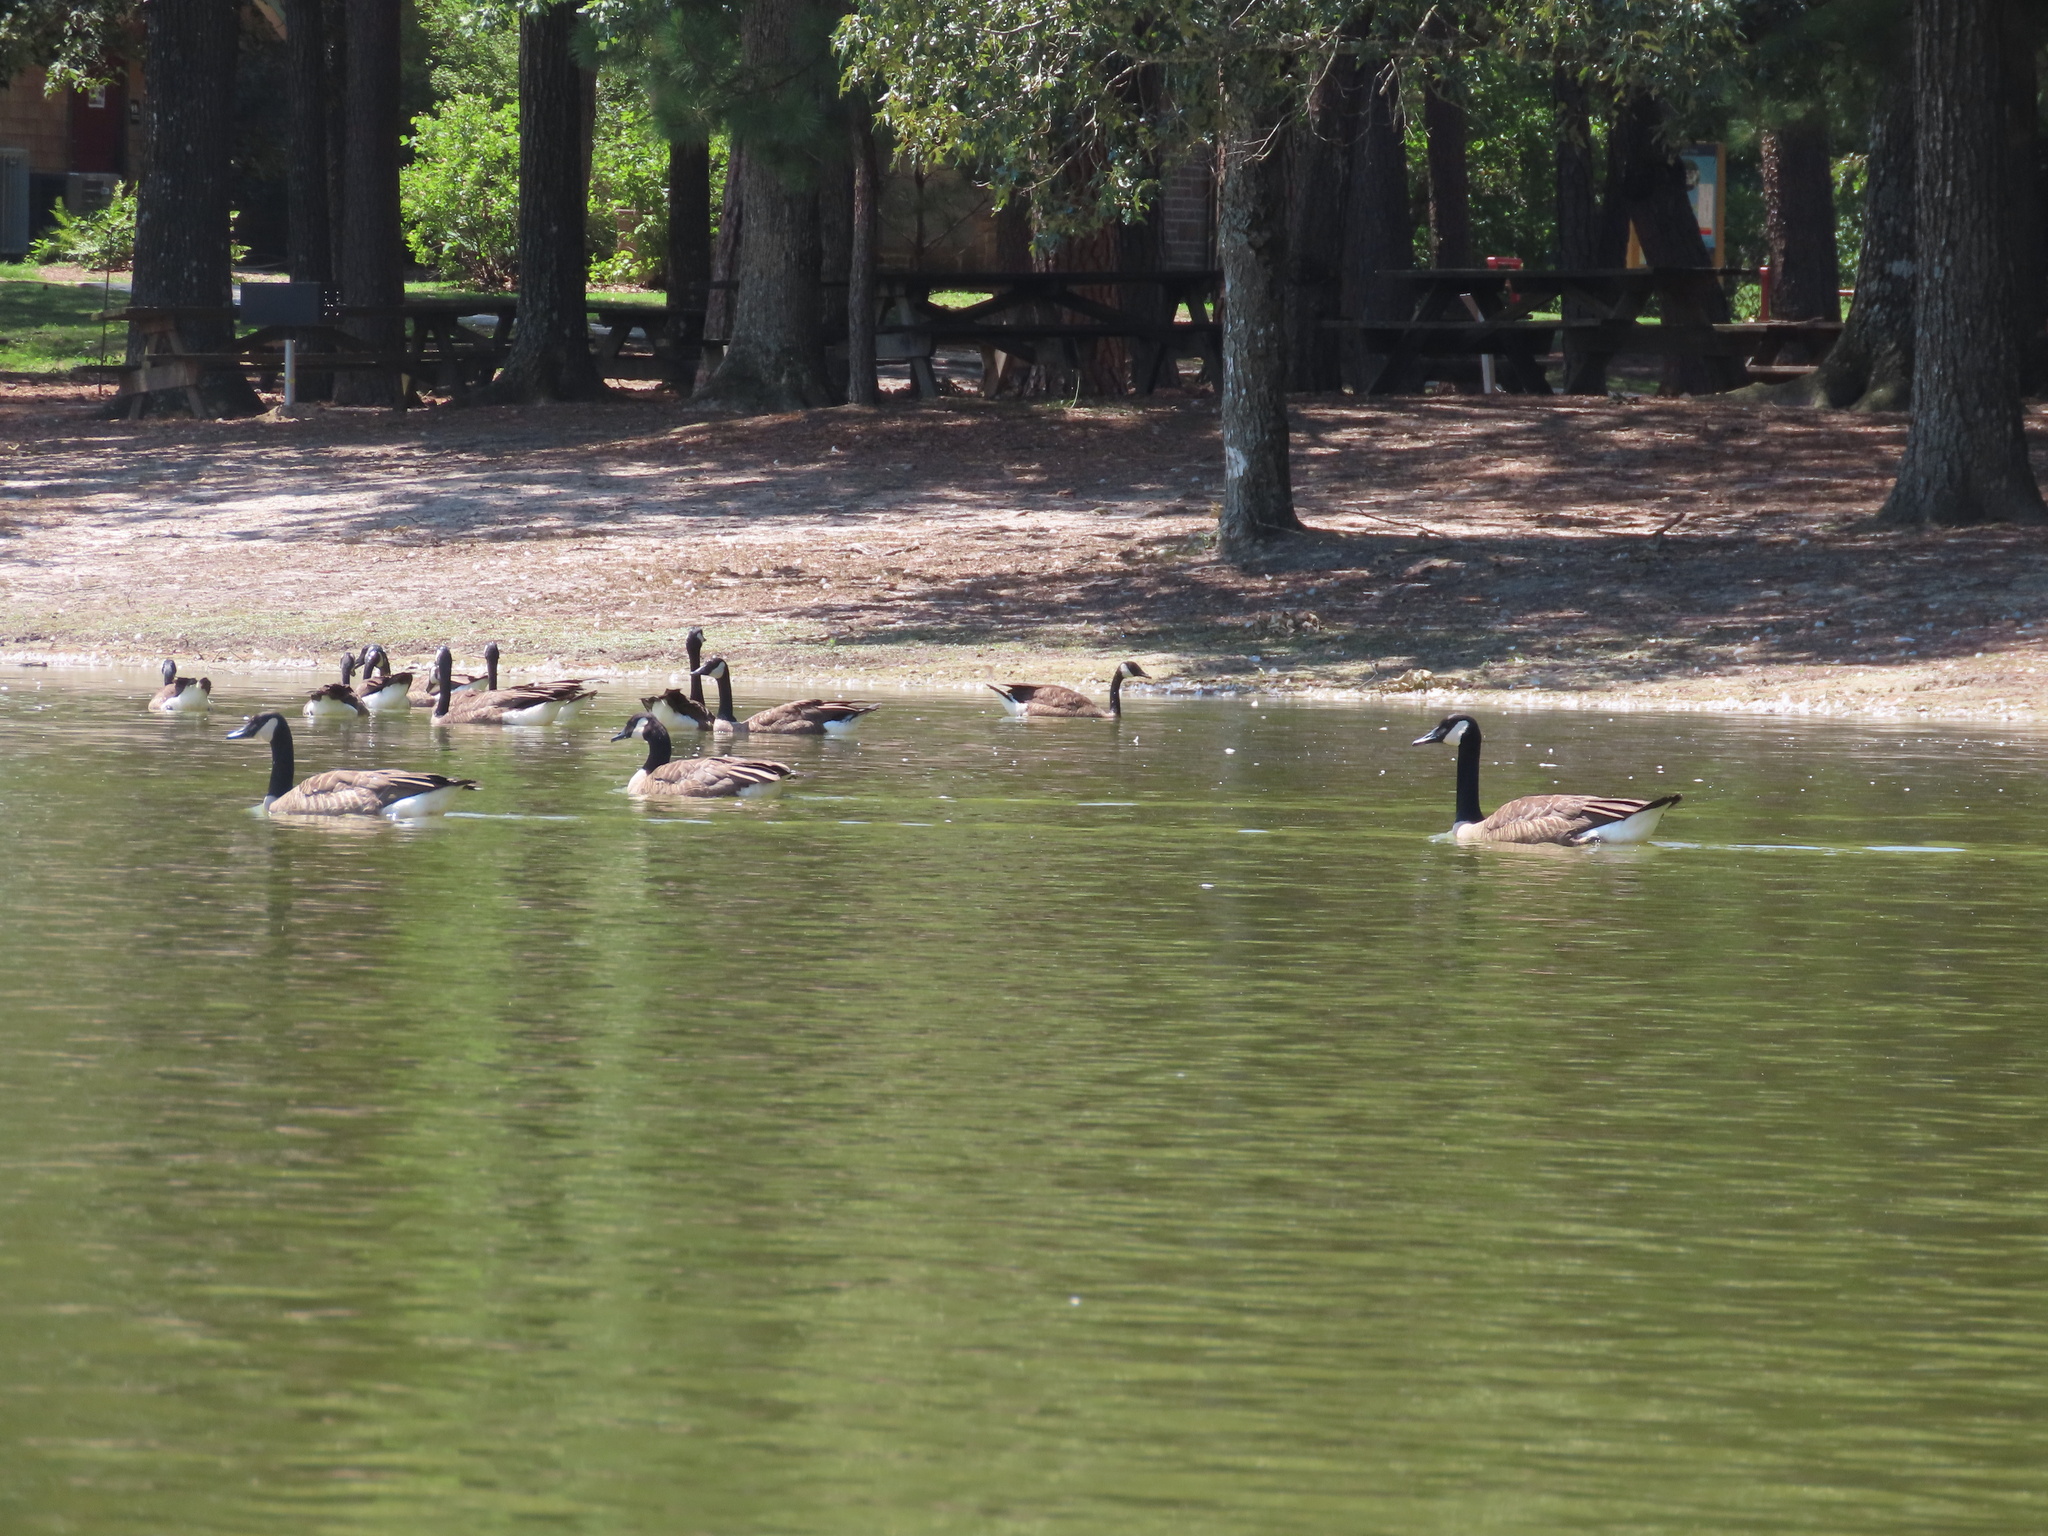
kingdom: Animalia
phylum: Chordata
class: Aves
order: Anseriformes
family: Anatidae
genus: Branta
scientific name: Branta canadensis
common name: Canada goose
